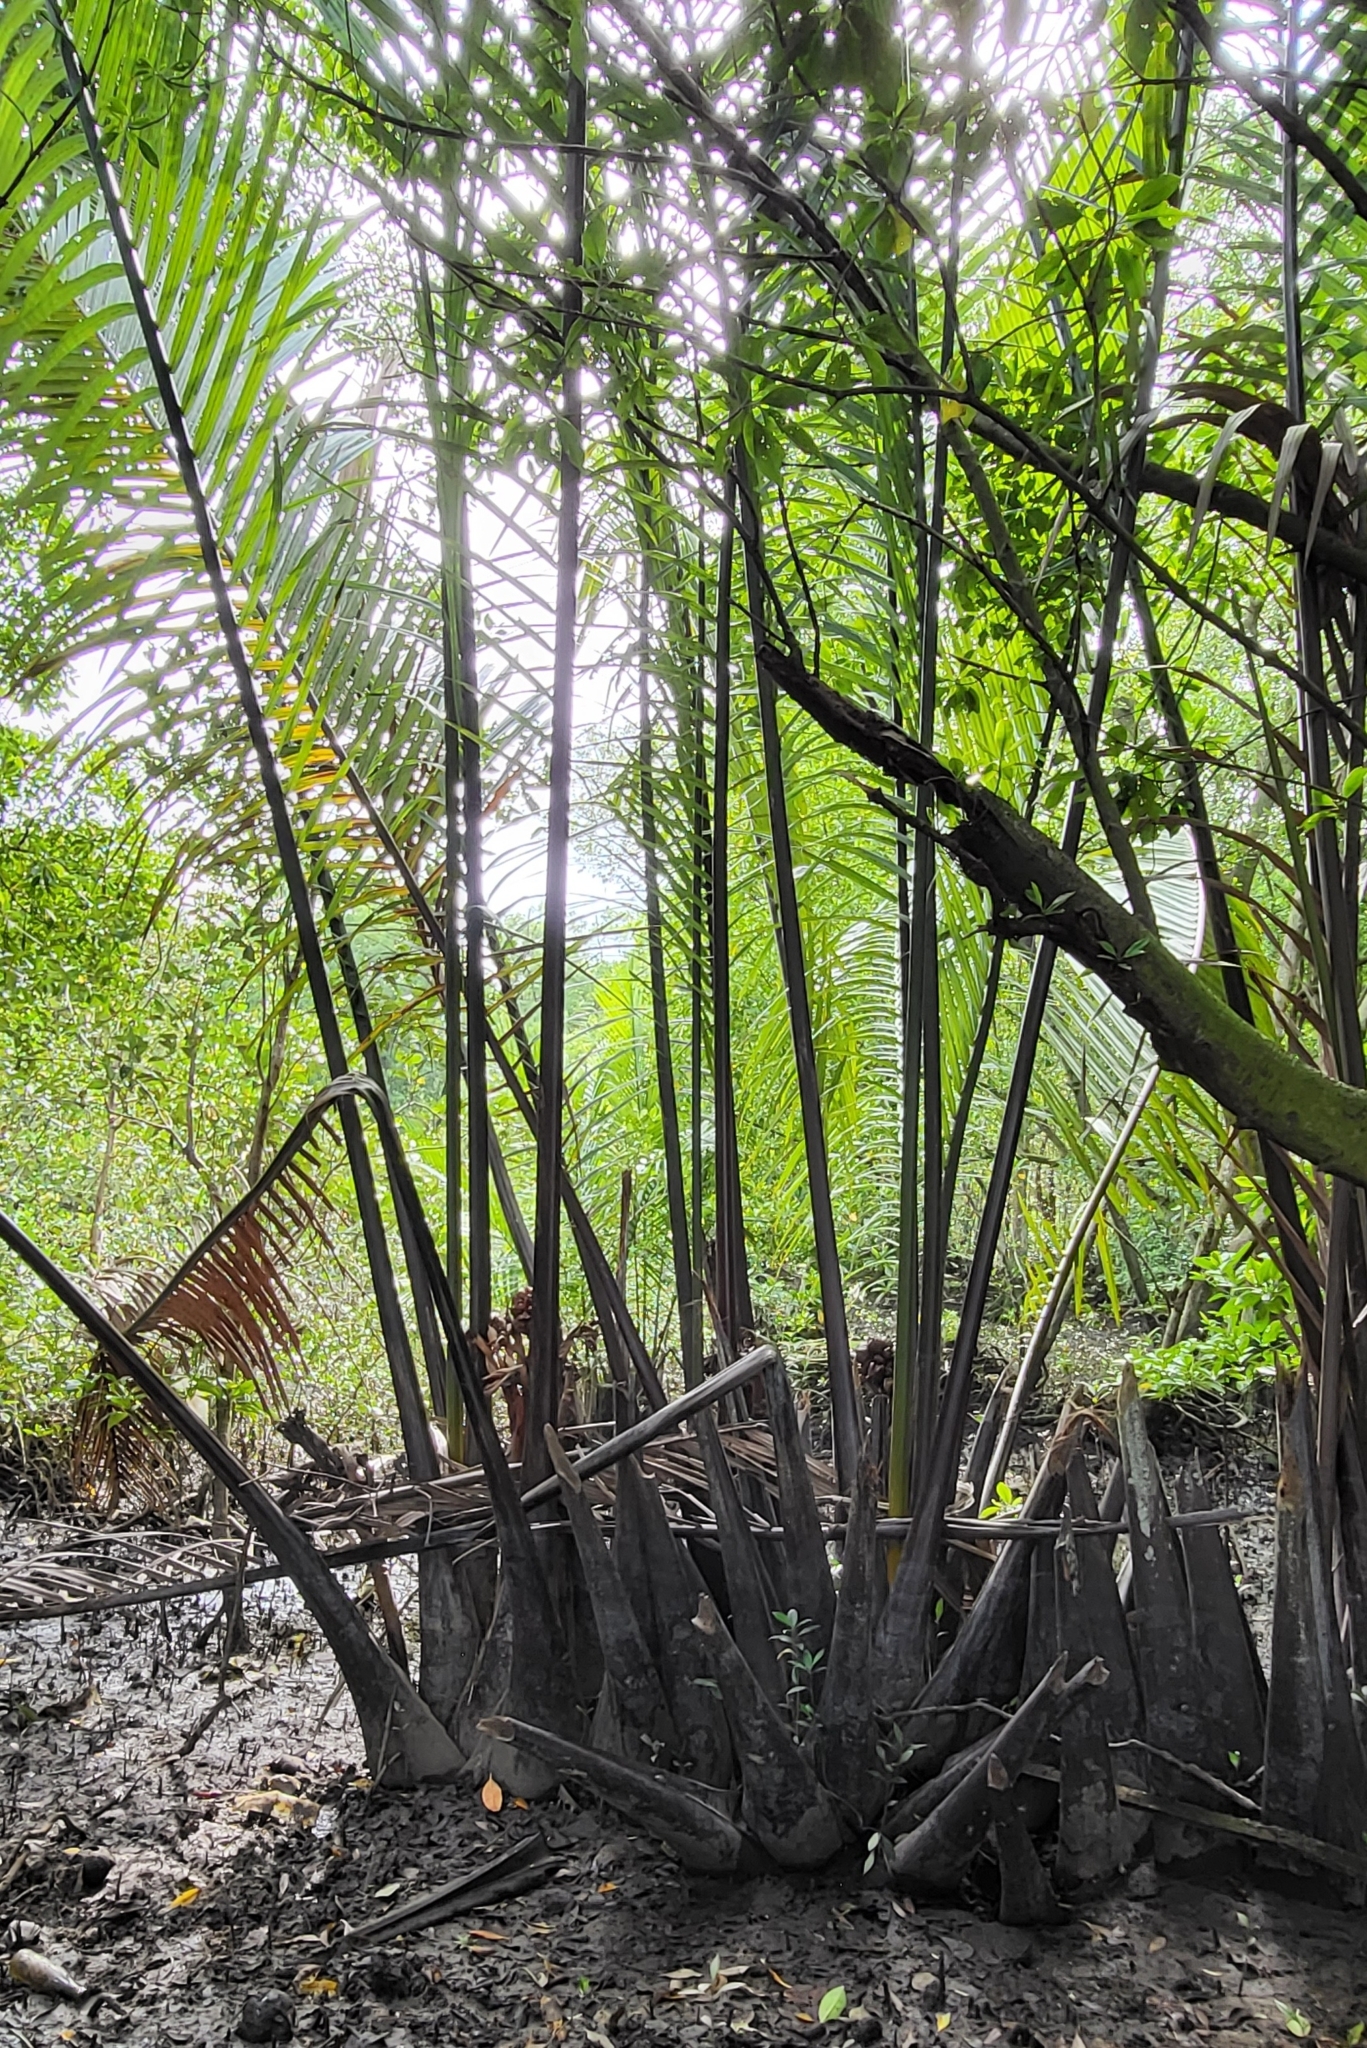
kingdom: Plantae
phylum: Tracheophyta
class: Liliopsida
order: Arecales
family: Arecaceae
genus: Nypa
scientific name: Nypa fruticans
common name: Mangrove palm
